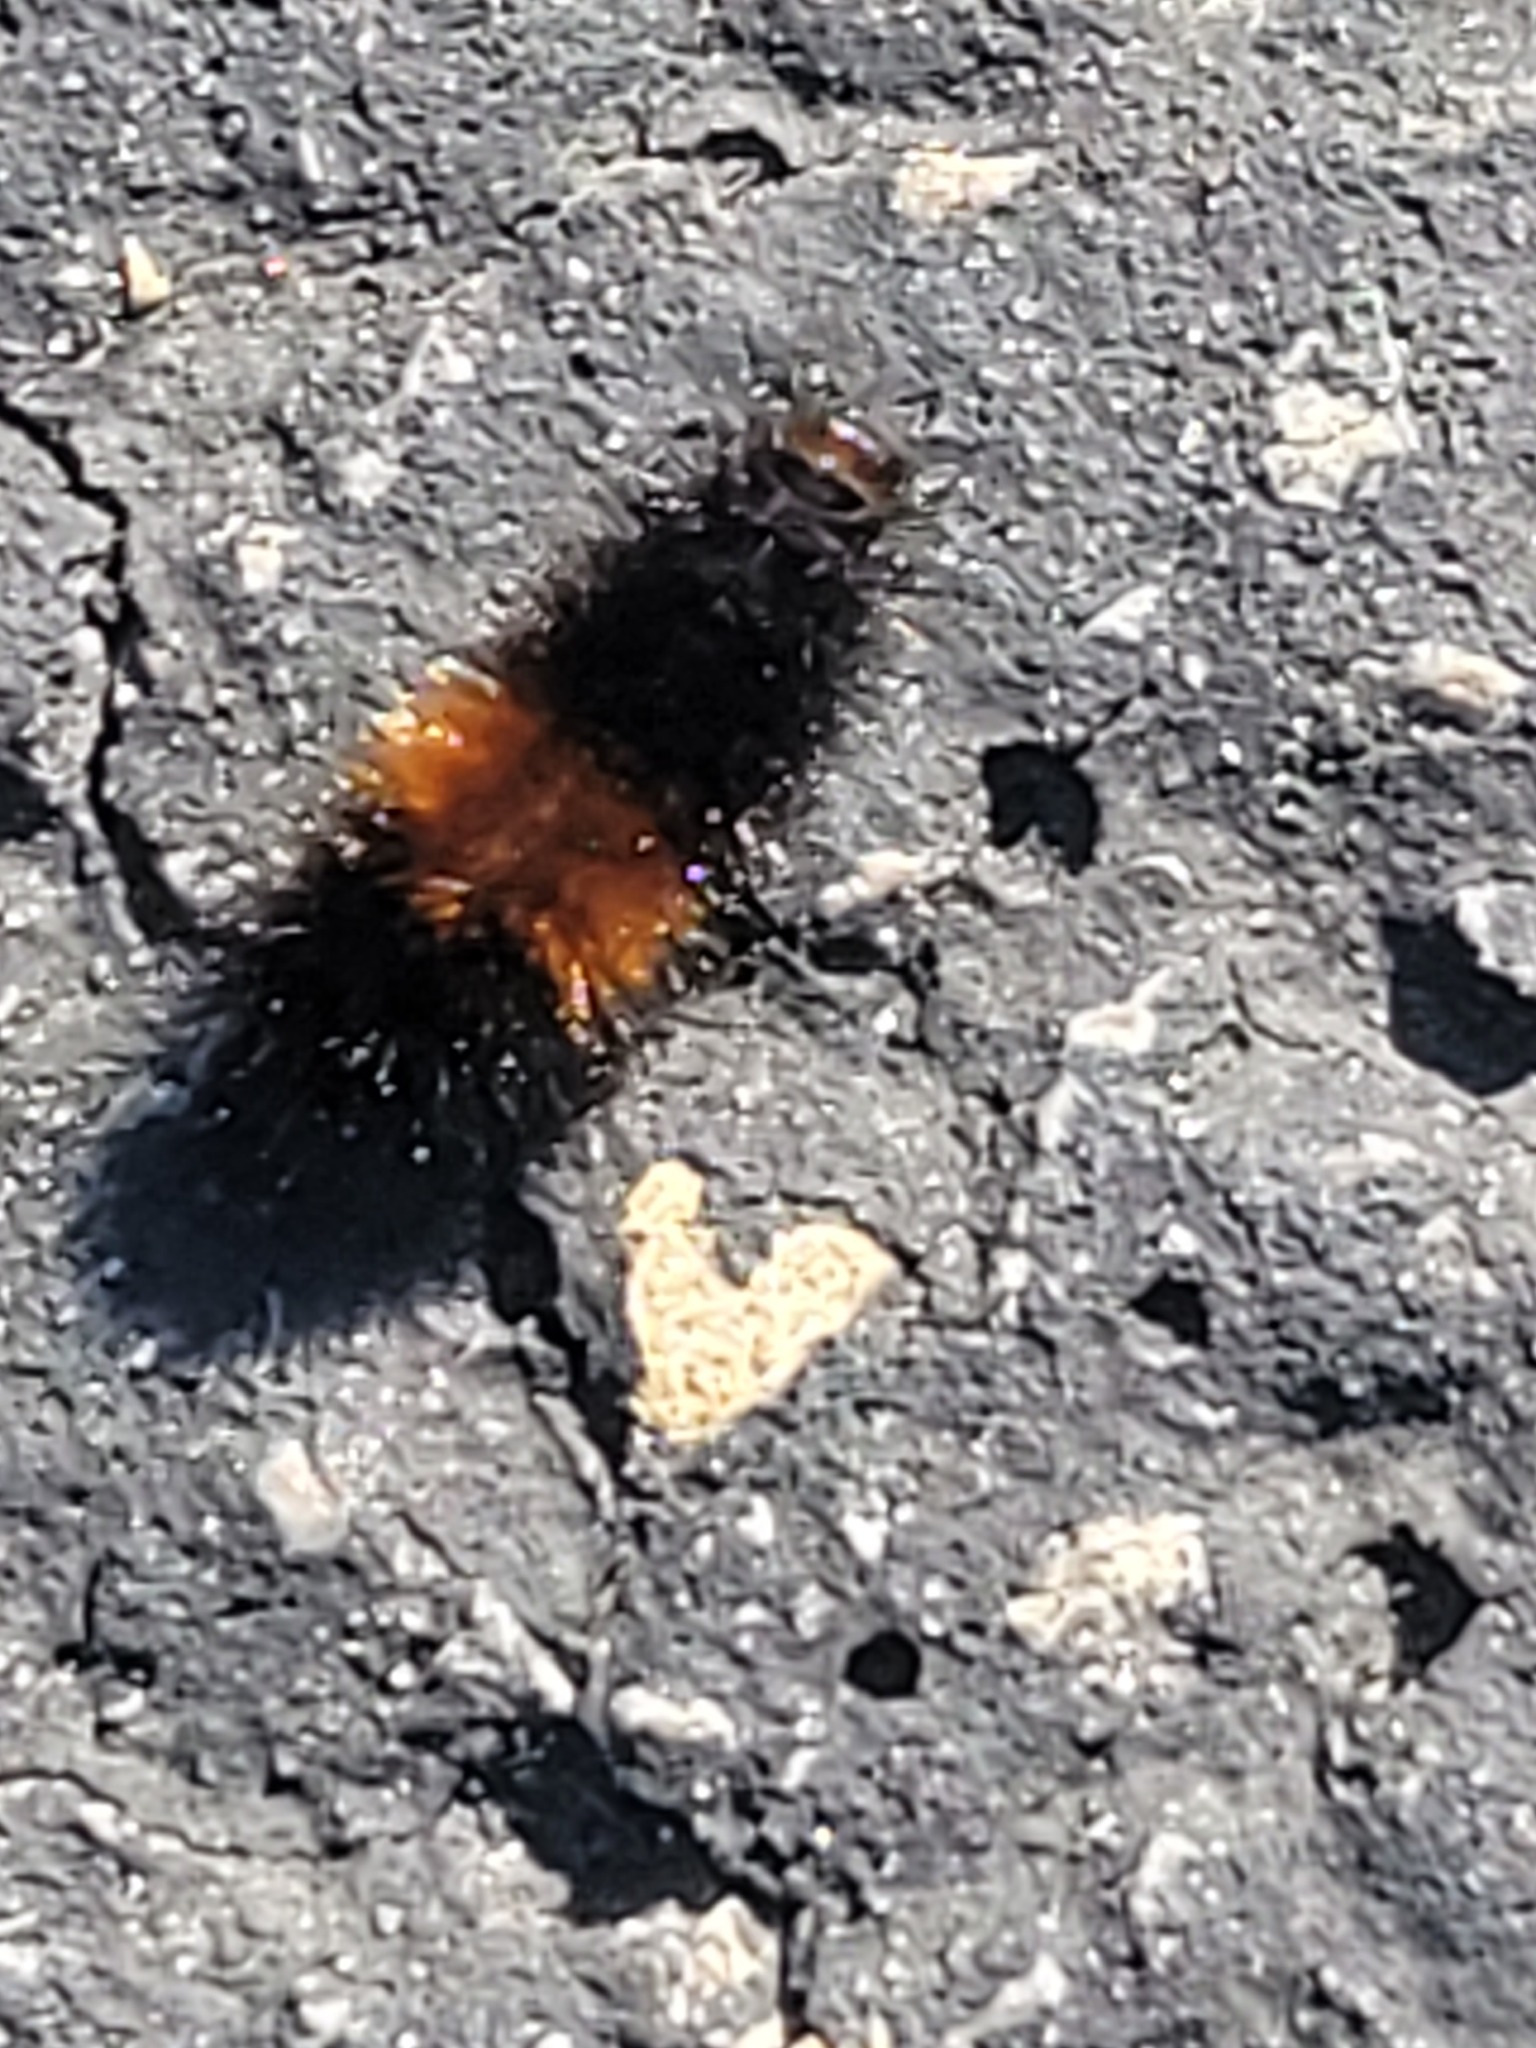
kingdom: Animalia
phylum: Arthropoda
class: Insecta
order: Lepidoptera
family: Erebidae
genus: Pyrrharctia
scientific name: Pyrrharctia isabella
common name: Isabella tiger moth
